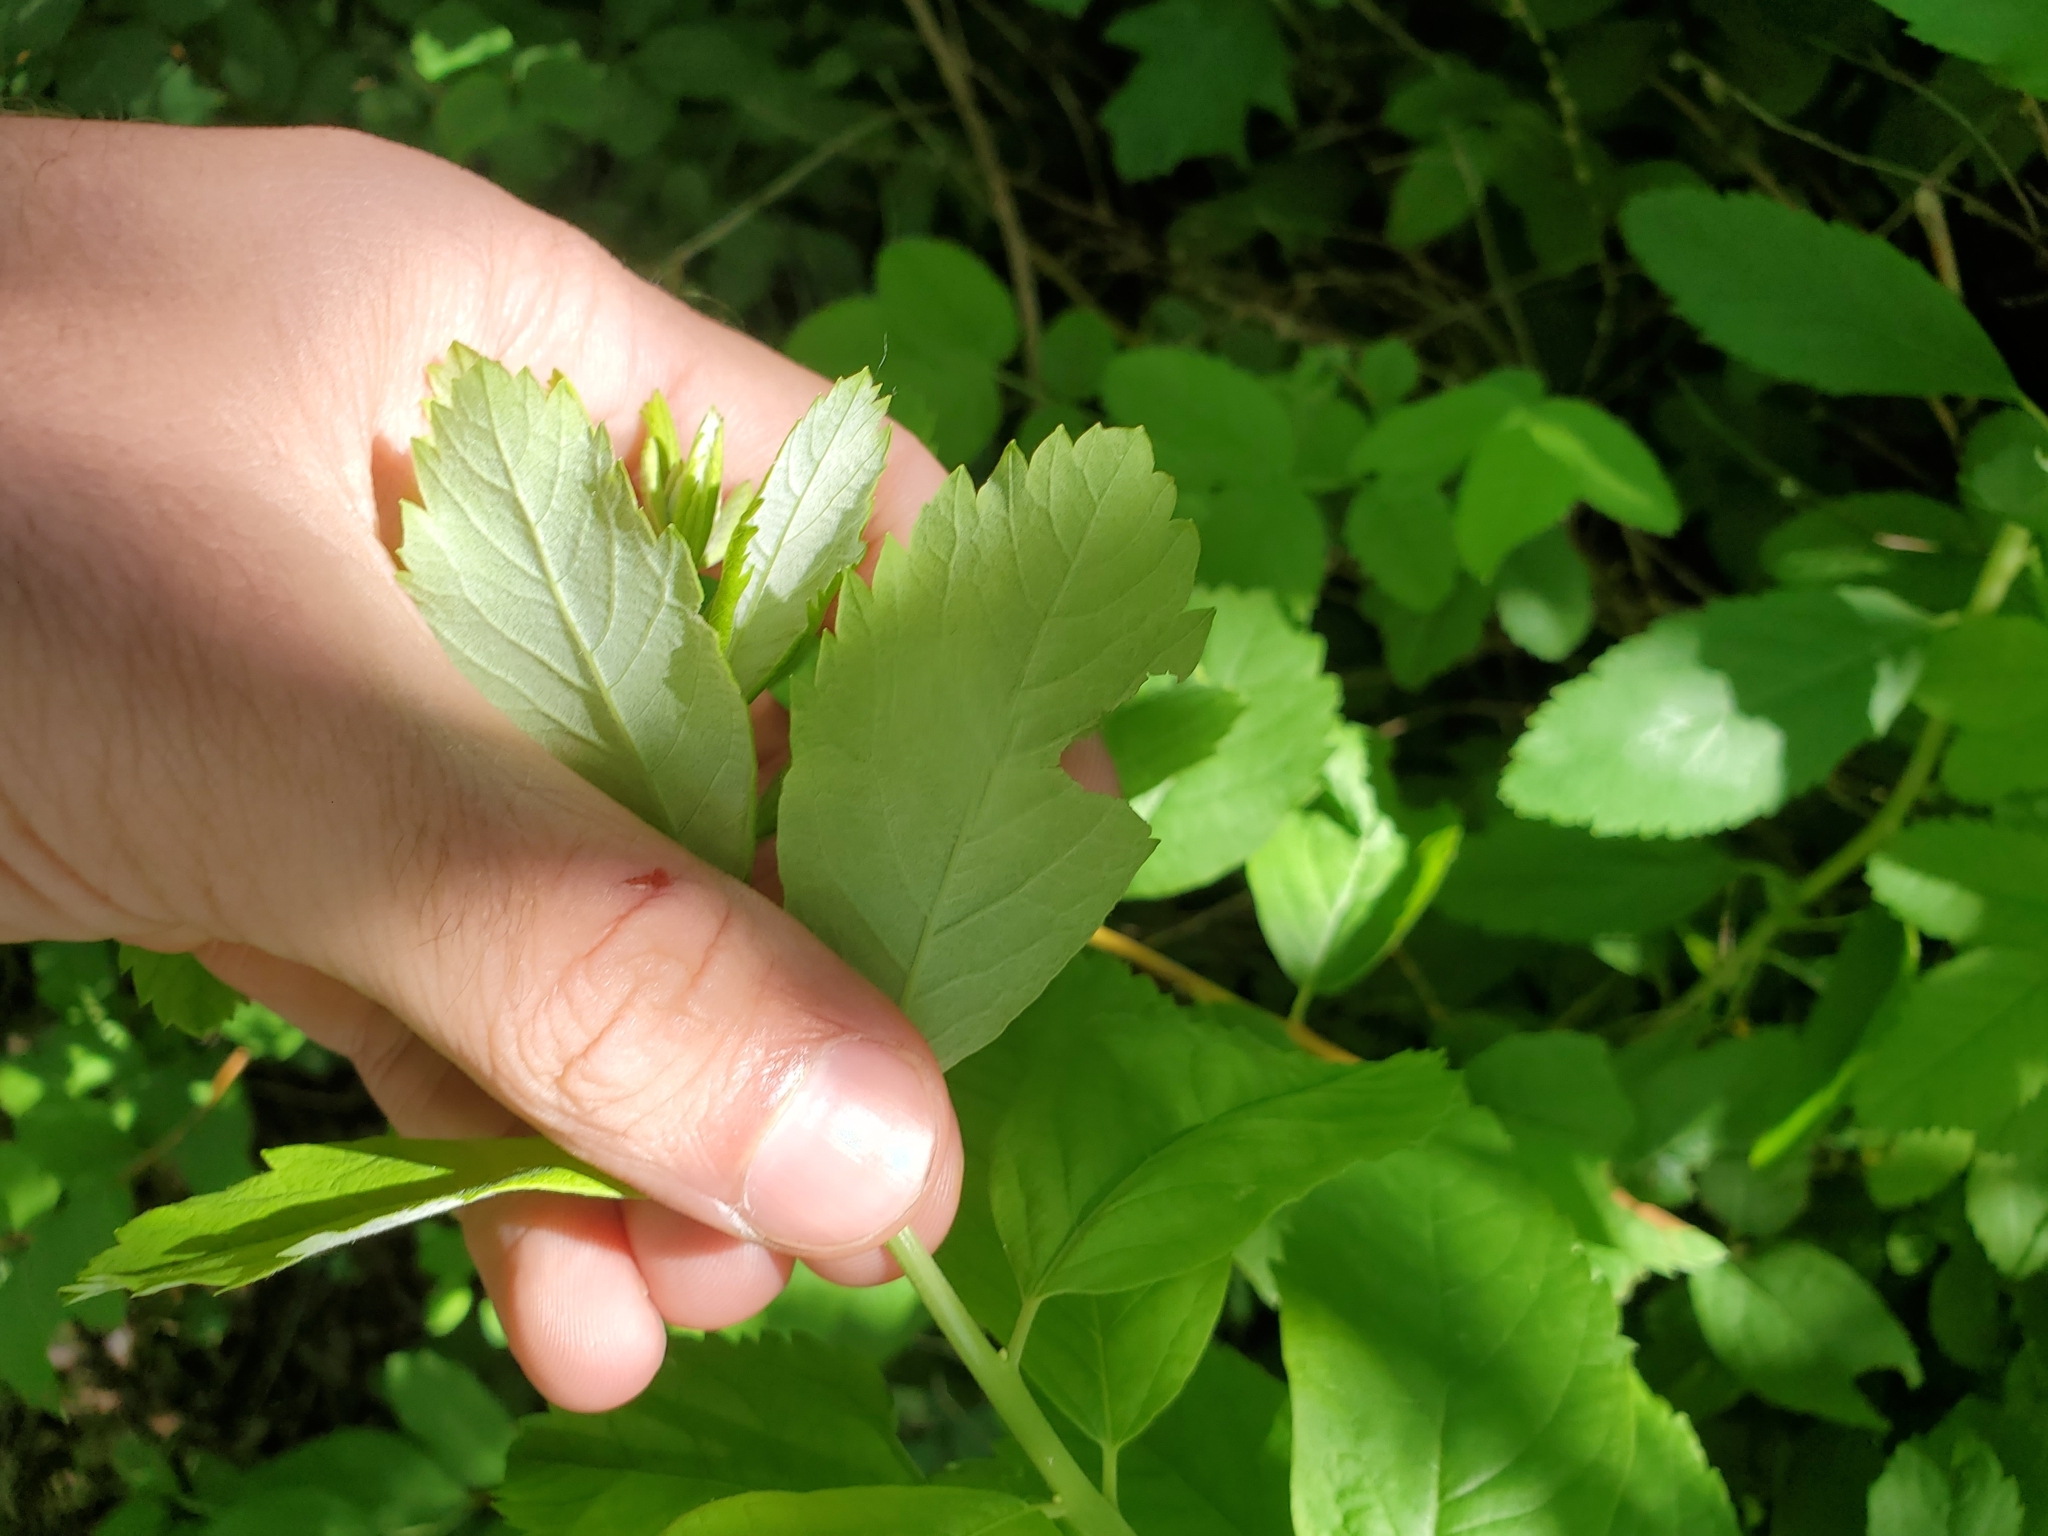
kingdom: Plantae
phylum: Tracheophyta
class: Magnoliopsida
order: Rosales
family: Rosaceae
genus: Spiraea
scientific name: Spiraea douglasii
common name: Steeplebush
